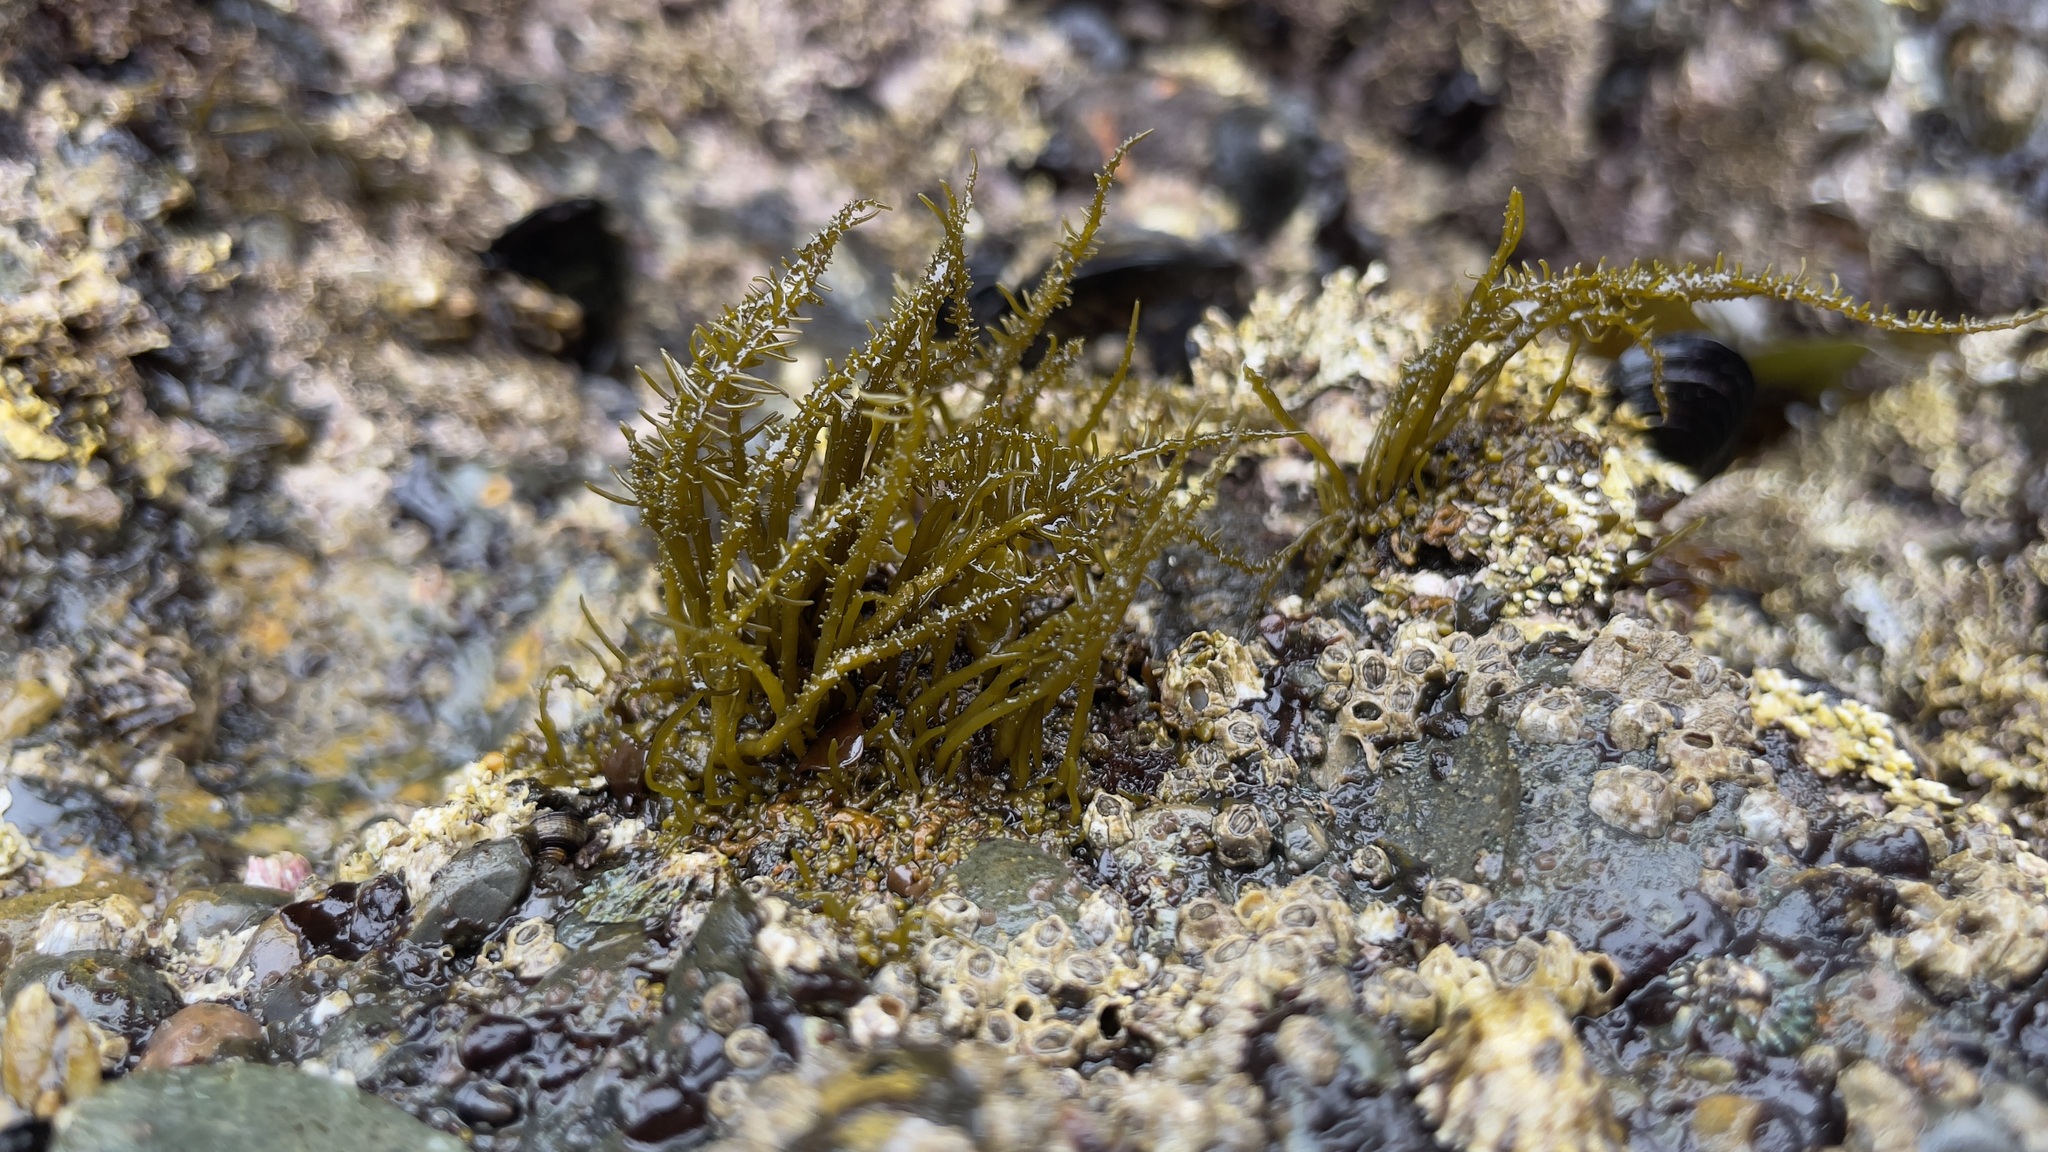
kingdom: Chromista
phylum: Ochrophyta
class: Phaeophyceae
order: Scytosiphonales
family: Scytosiphonaceae
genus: Analipus
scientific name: Analipus japonicus
